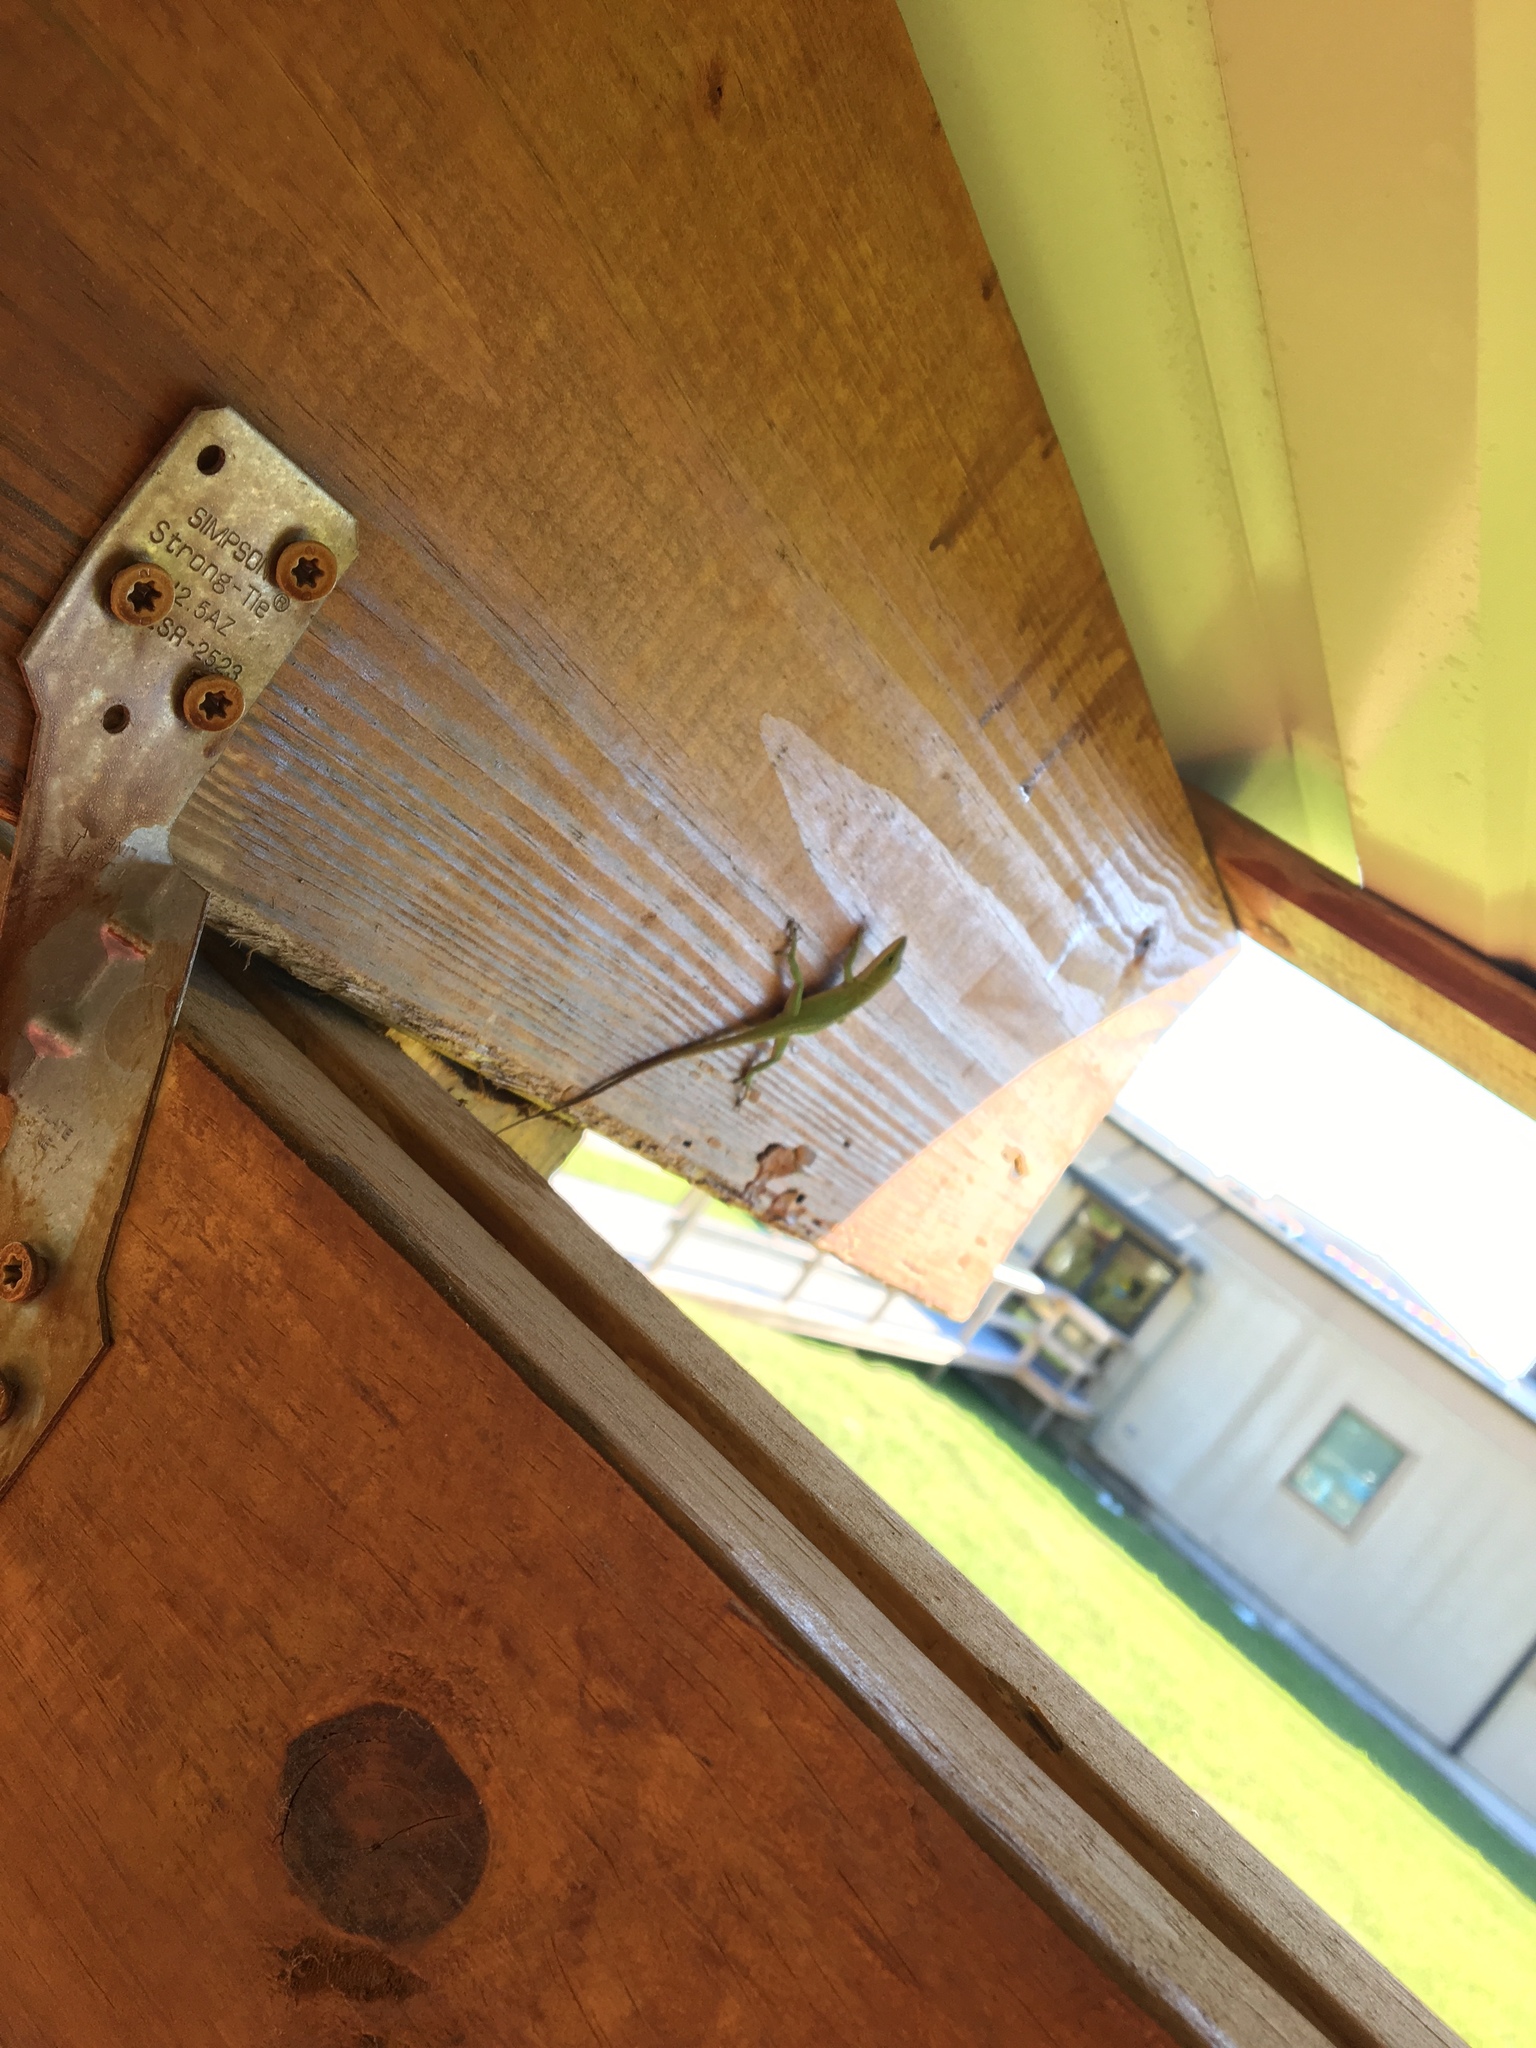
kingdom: Animalia
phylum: Chordata
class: Squamata
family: Dactyloidae
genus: Anolis
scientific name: Anolis carolinensis
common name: Green anole
